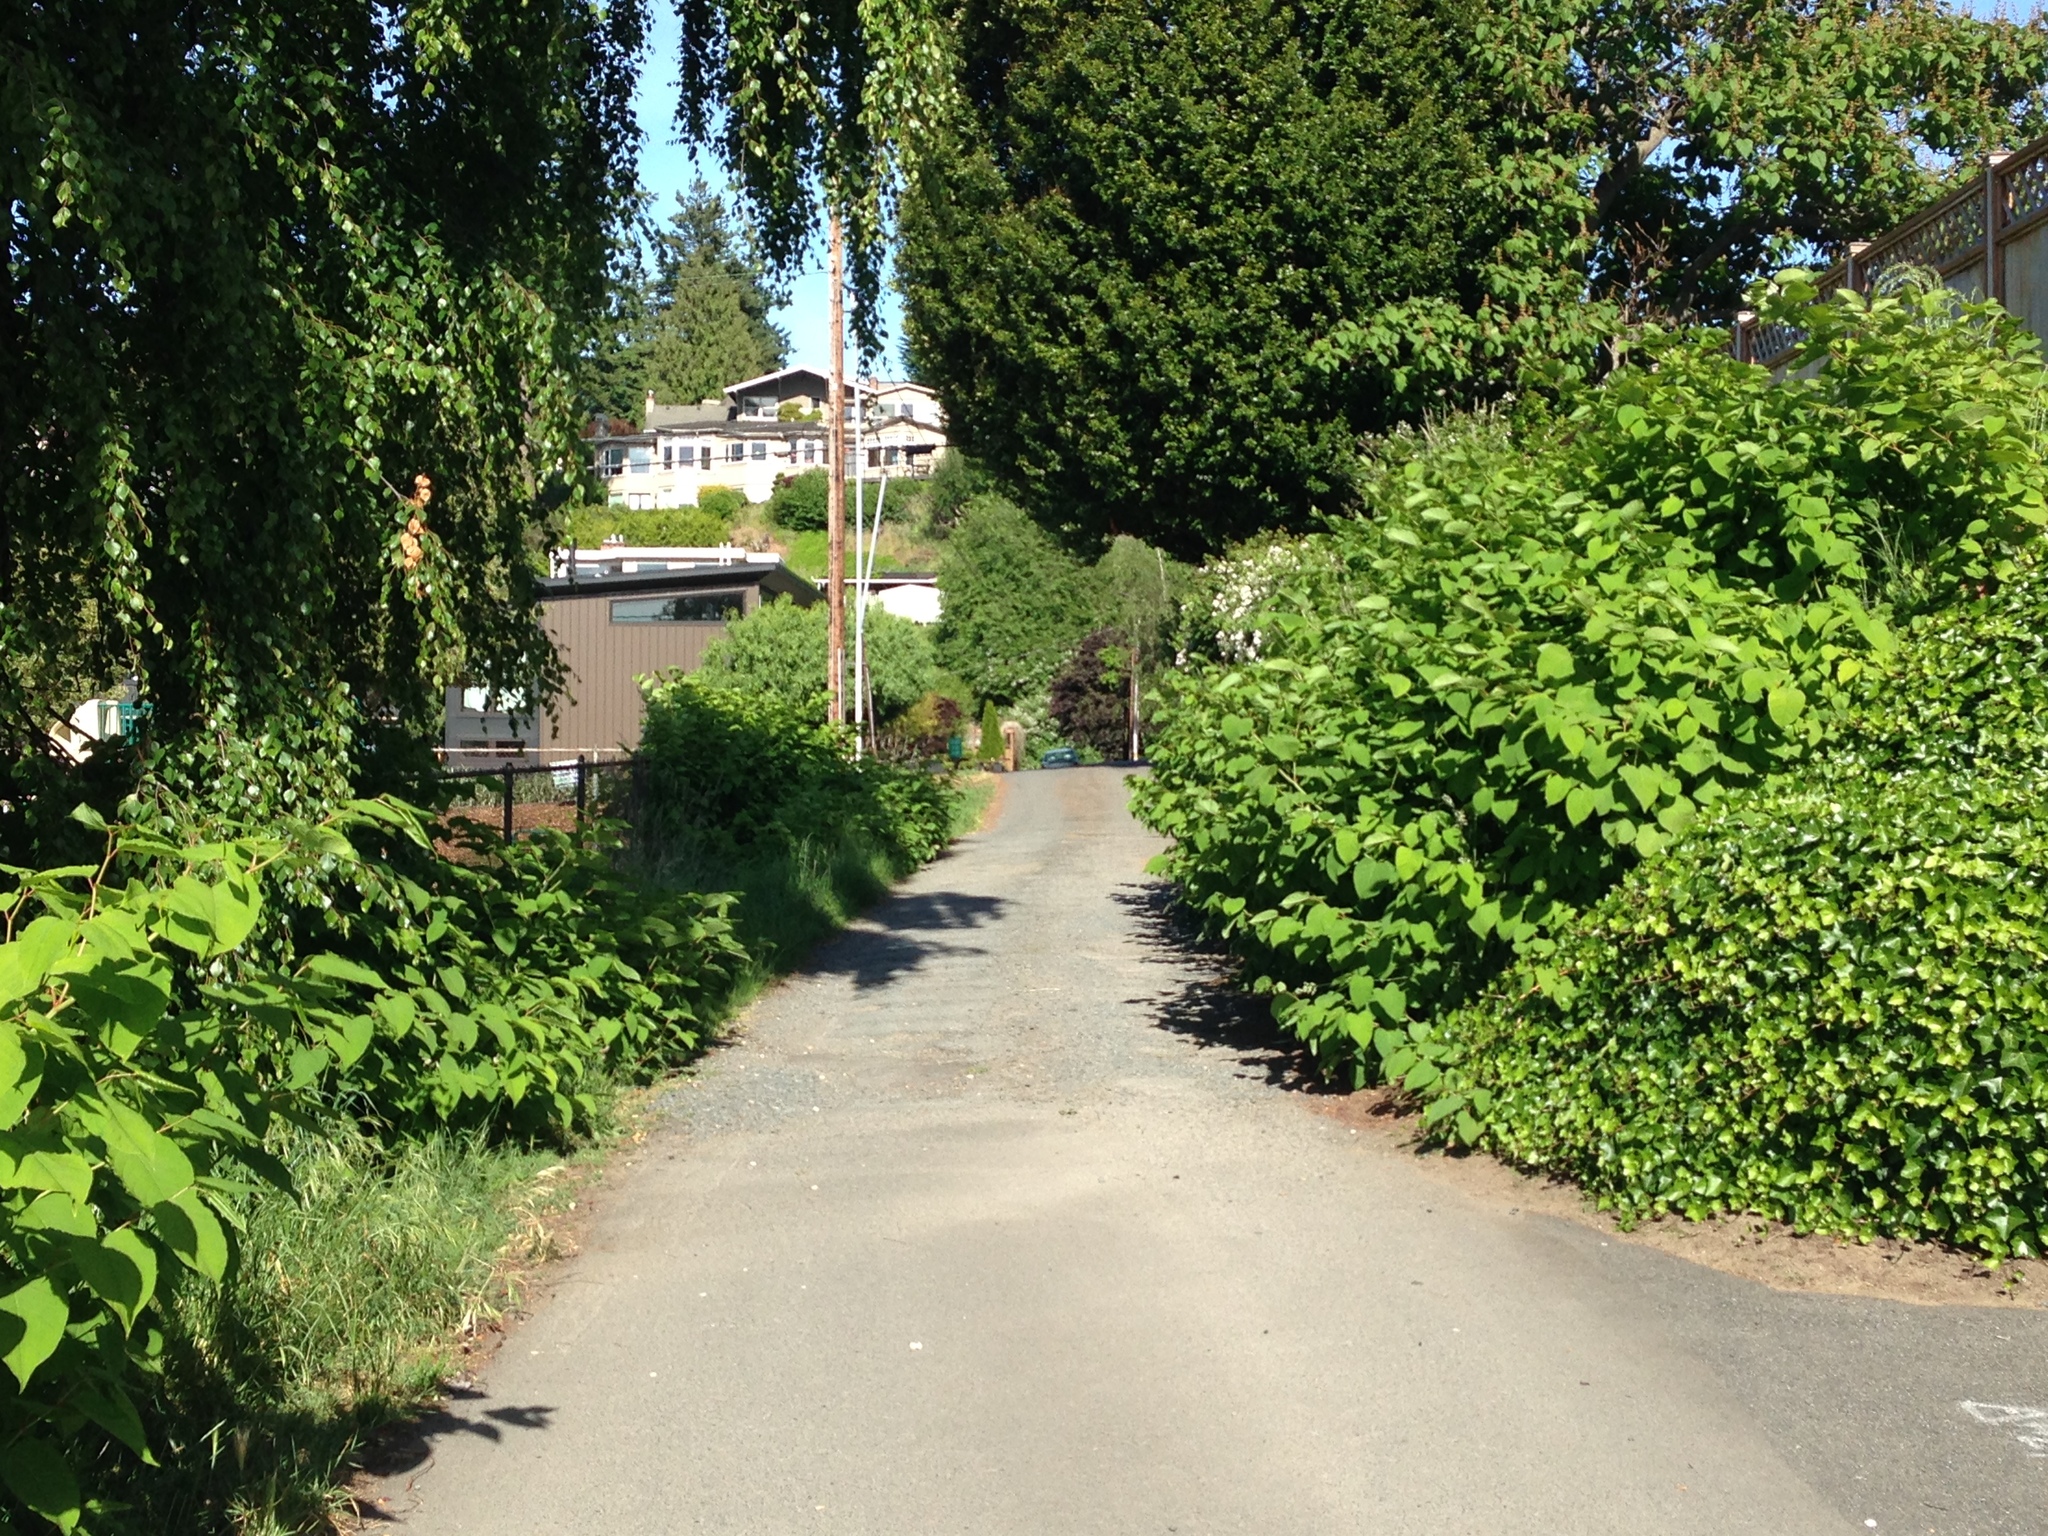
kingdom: Plantae
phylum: Tracheophyta
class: Magnoliopsida
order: Caryophyllales
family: Polygonaceae
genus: Reynoutria
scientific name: Reynoutria japonica
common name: Japanese knotweed
